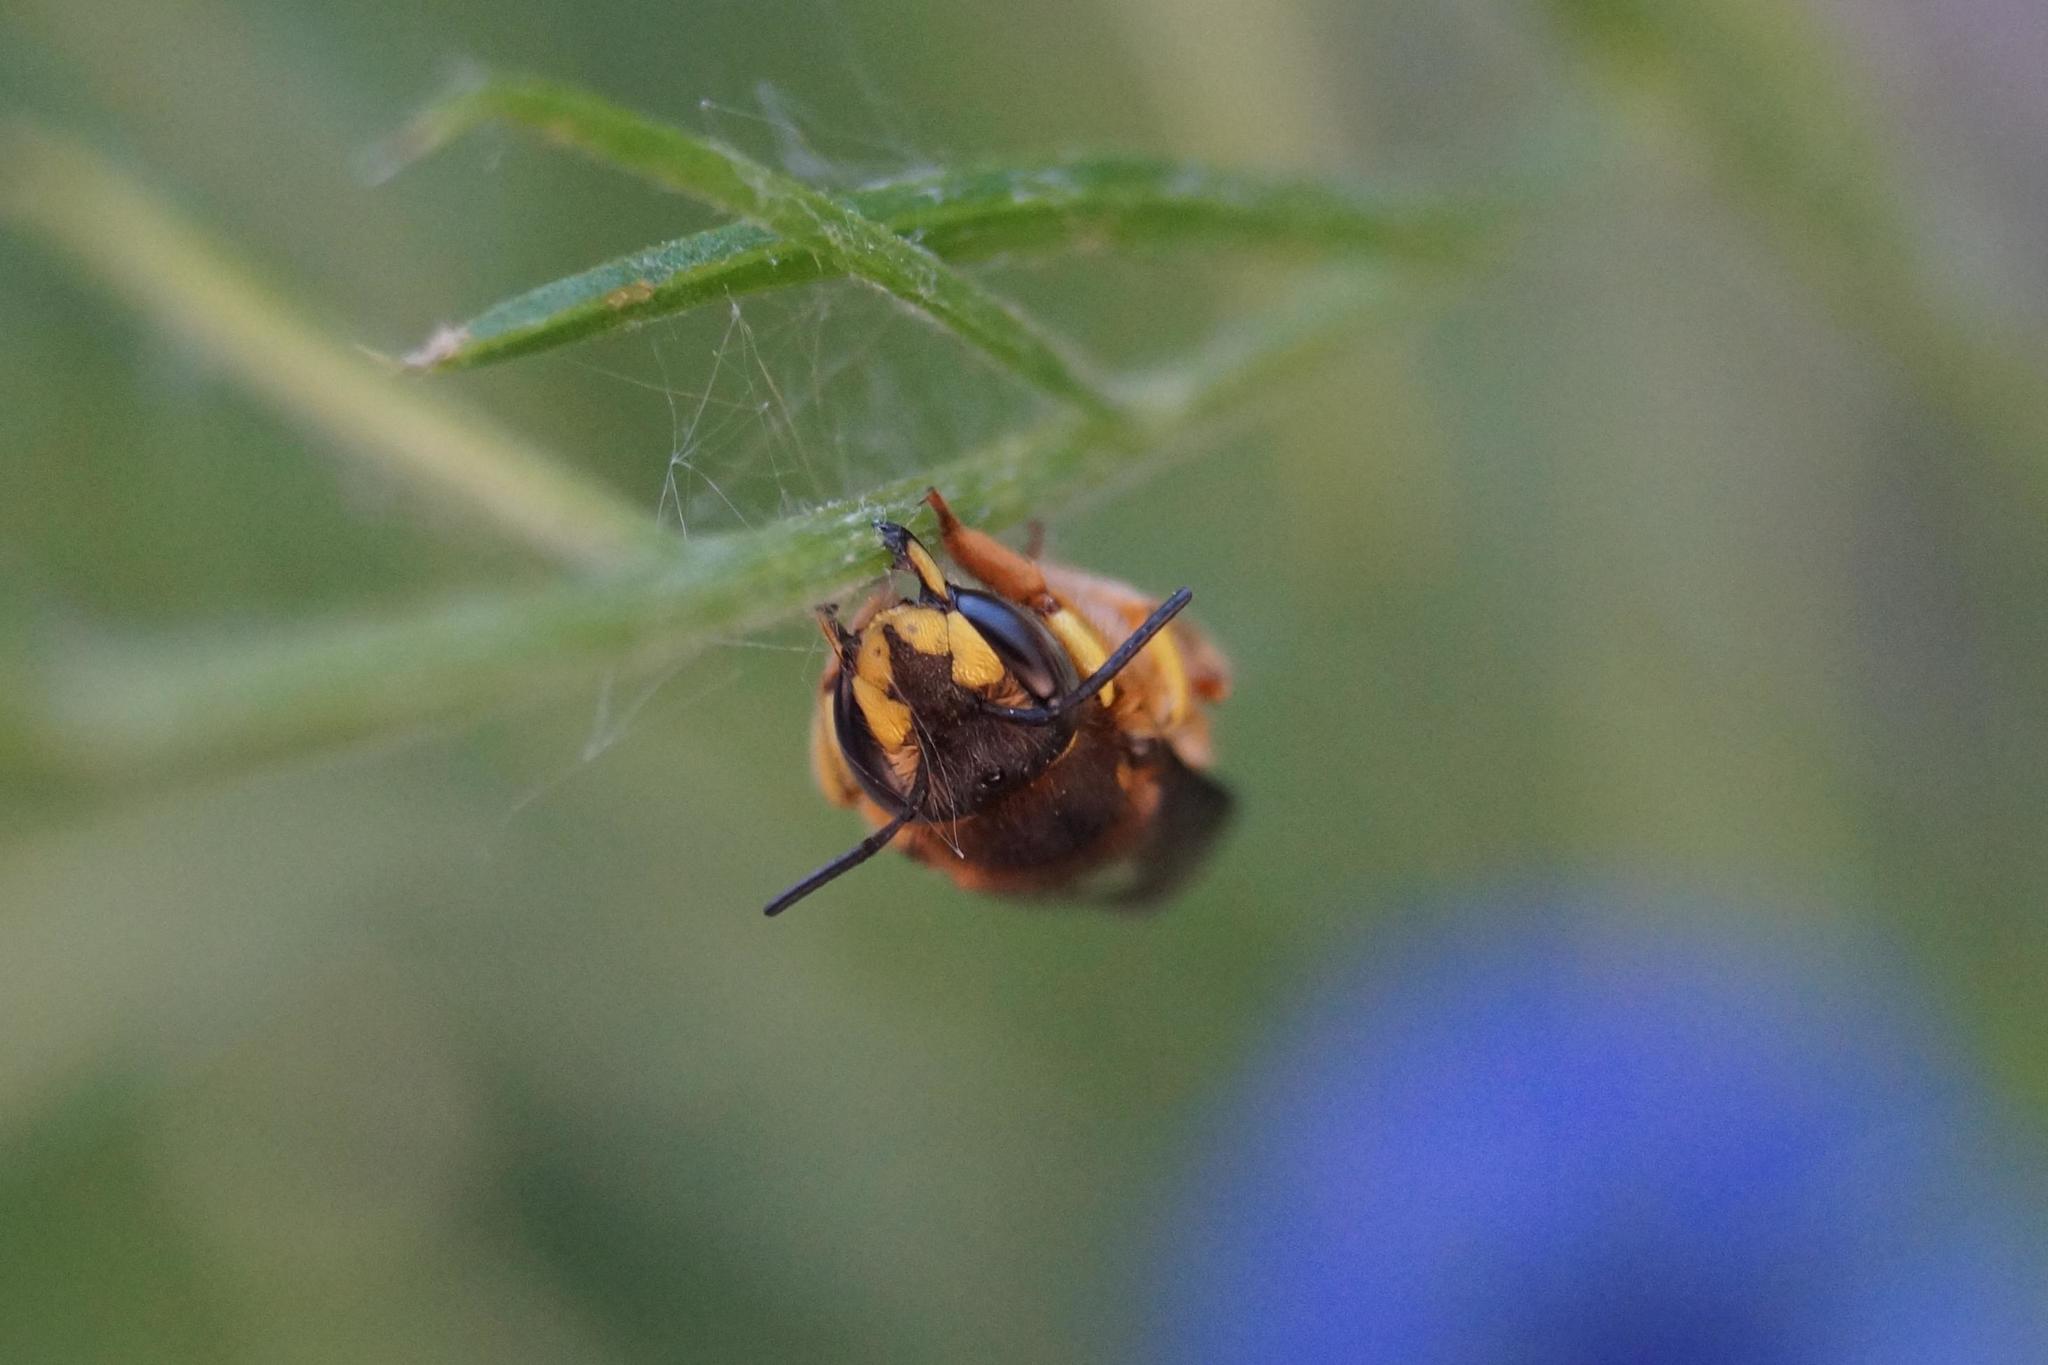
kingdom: Animalia
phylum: Arthropoda
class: Insecta
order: Hymenoptera
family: Megachilidae
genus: Anthidium
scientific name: Anthidium manicatum
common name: Wool carder bee
